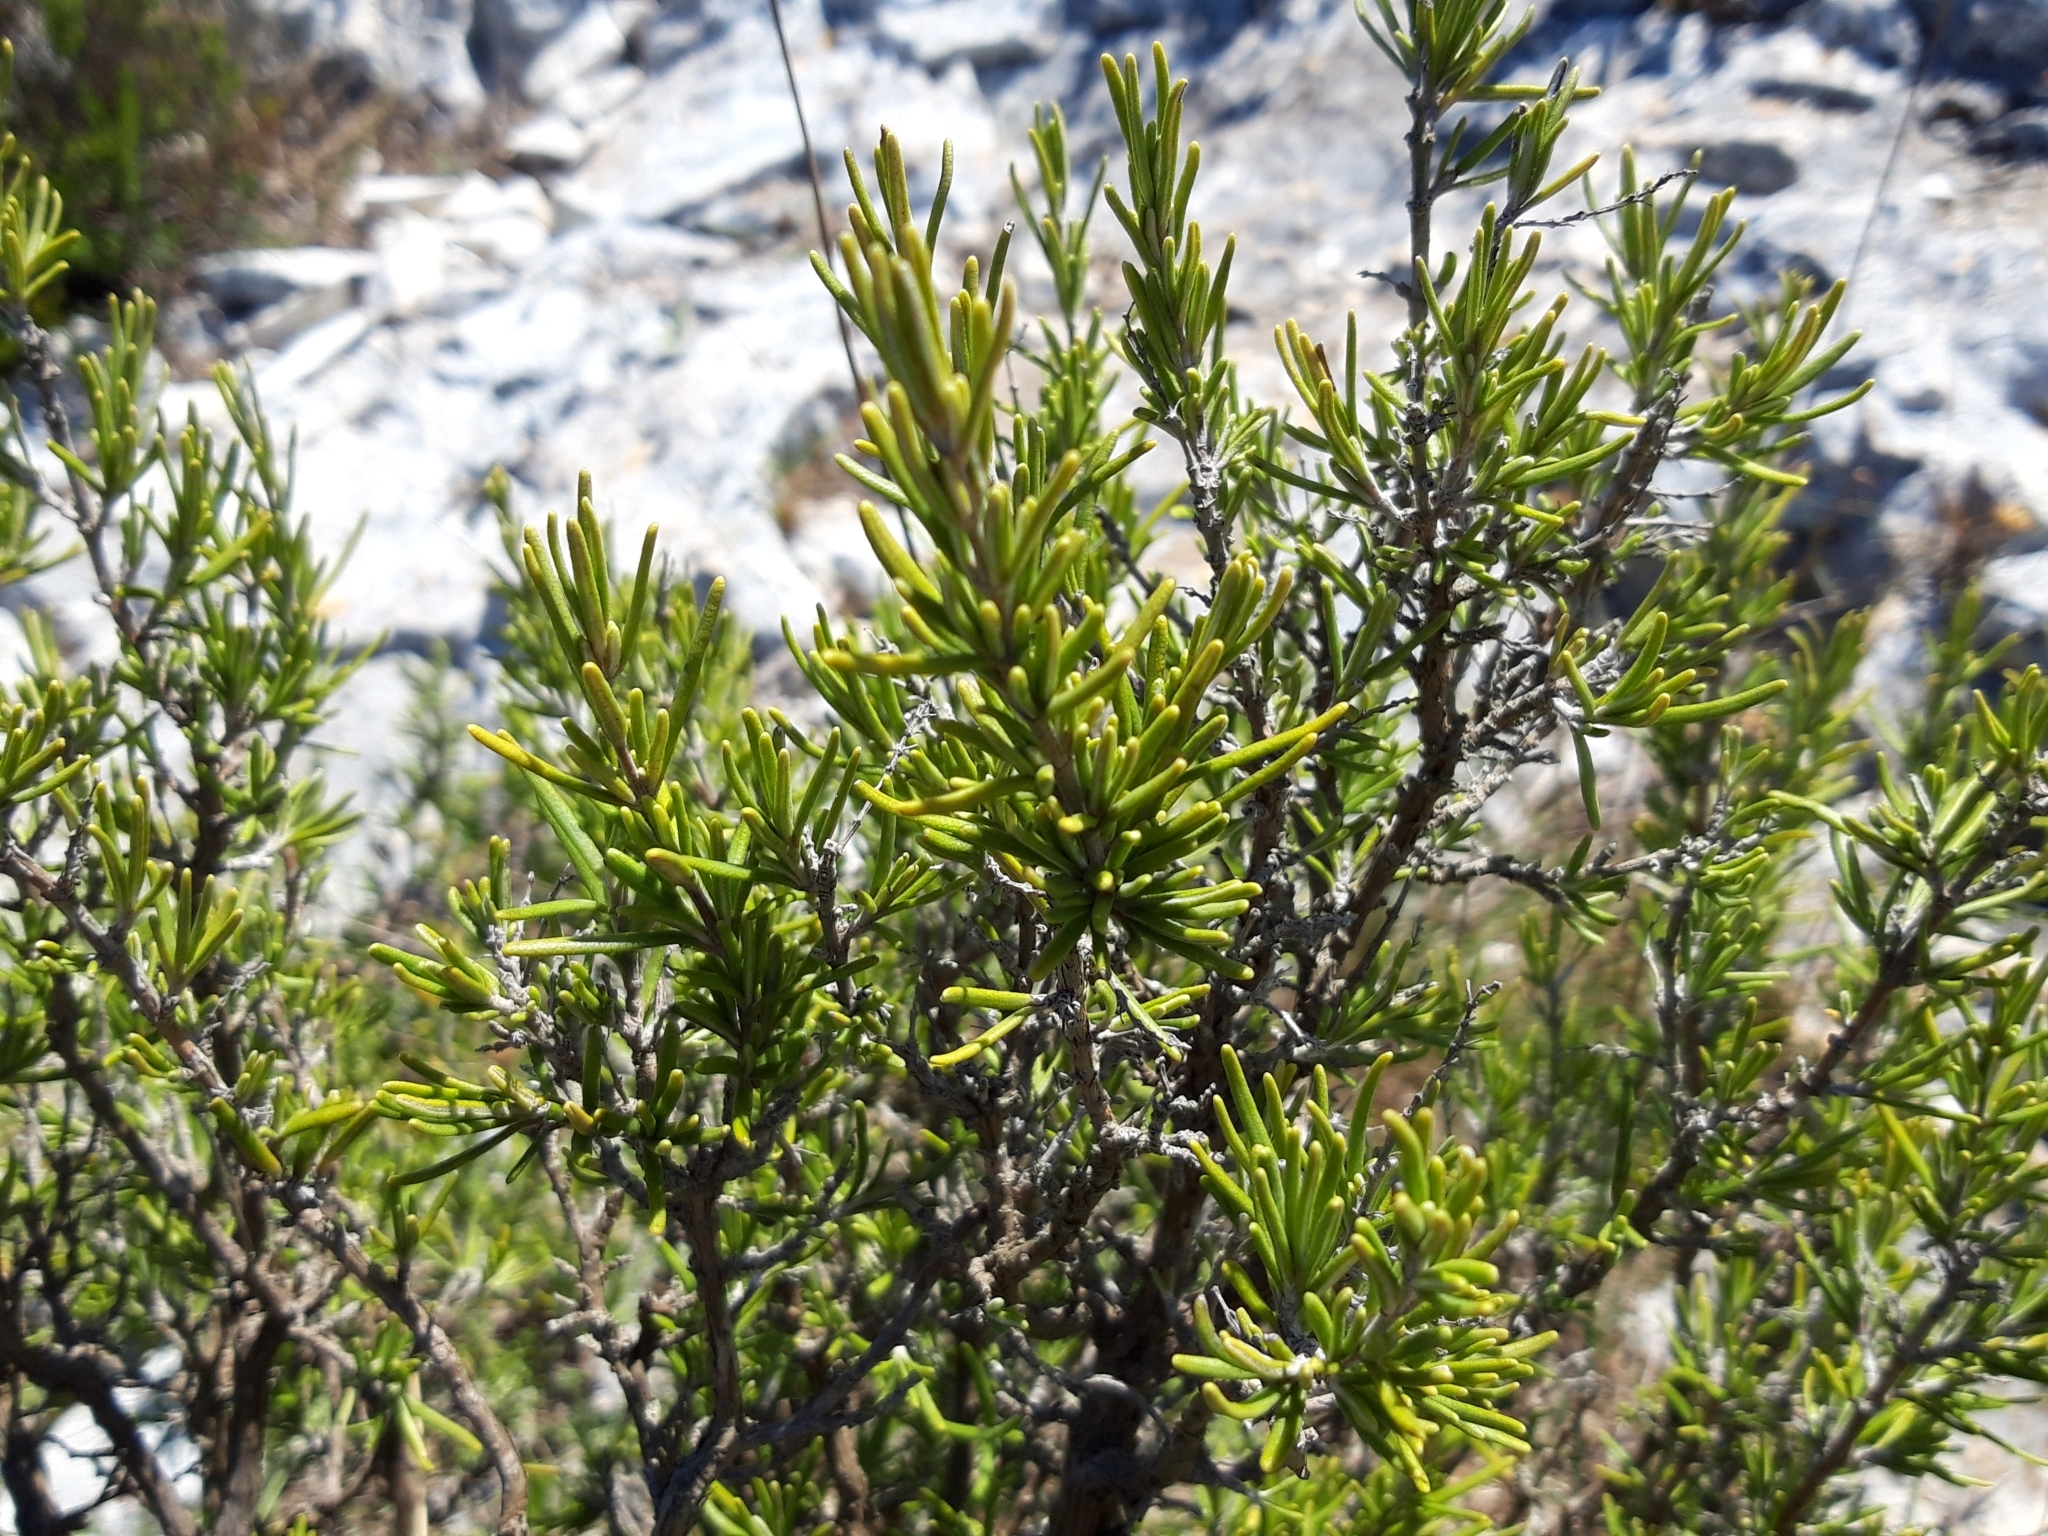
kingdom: Plantae
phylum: Tracheophyta
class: Magnoliopsida
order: Lamiales
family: Lamiaceae
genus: Salvia
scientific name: Salvia rosmarinus
